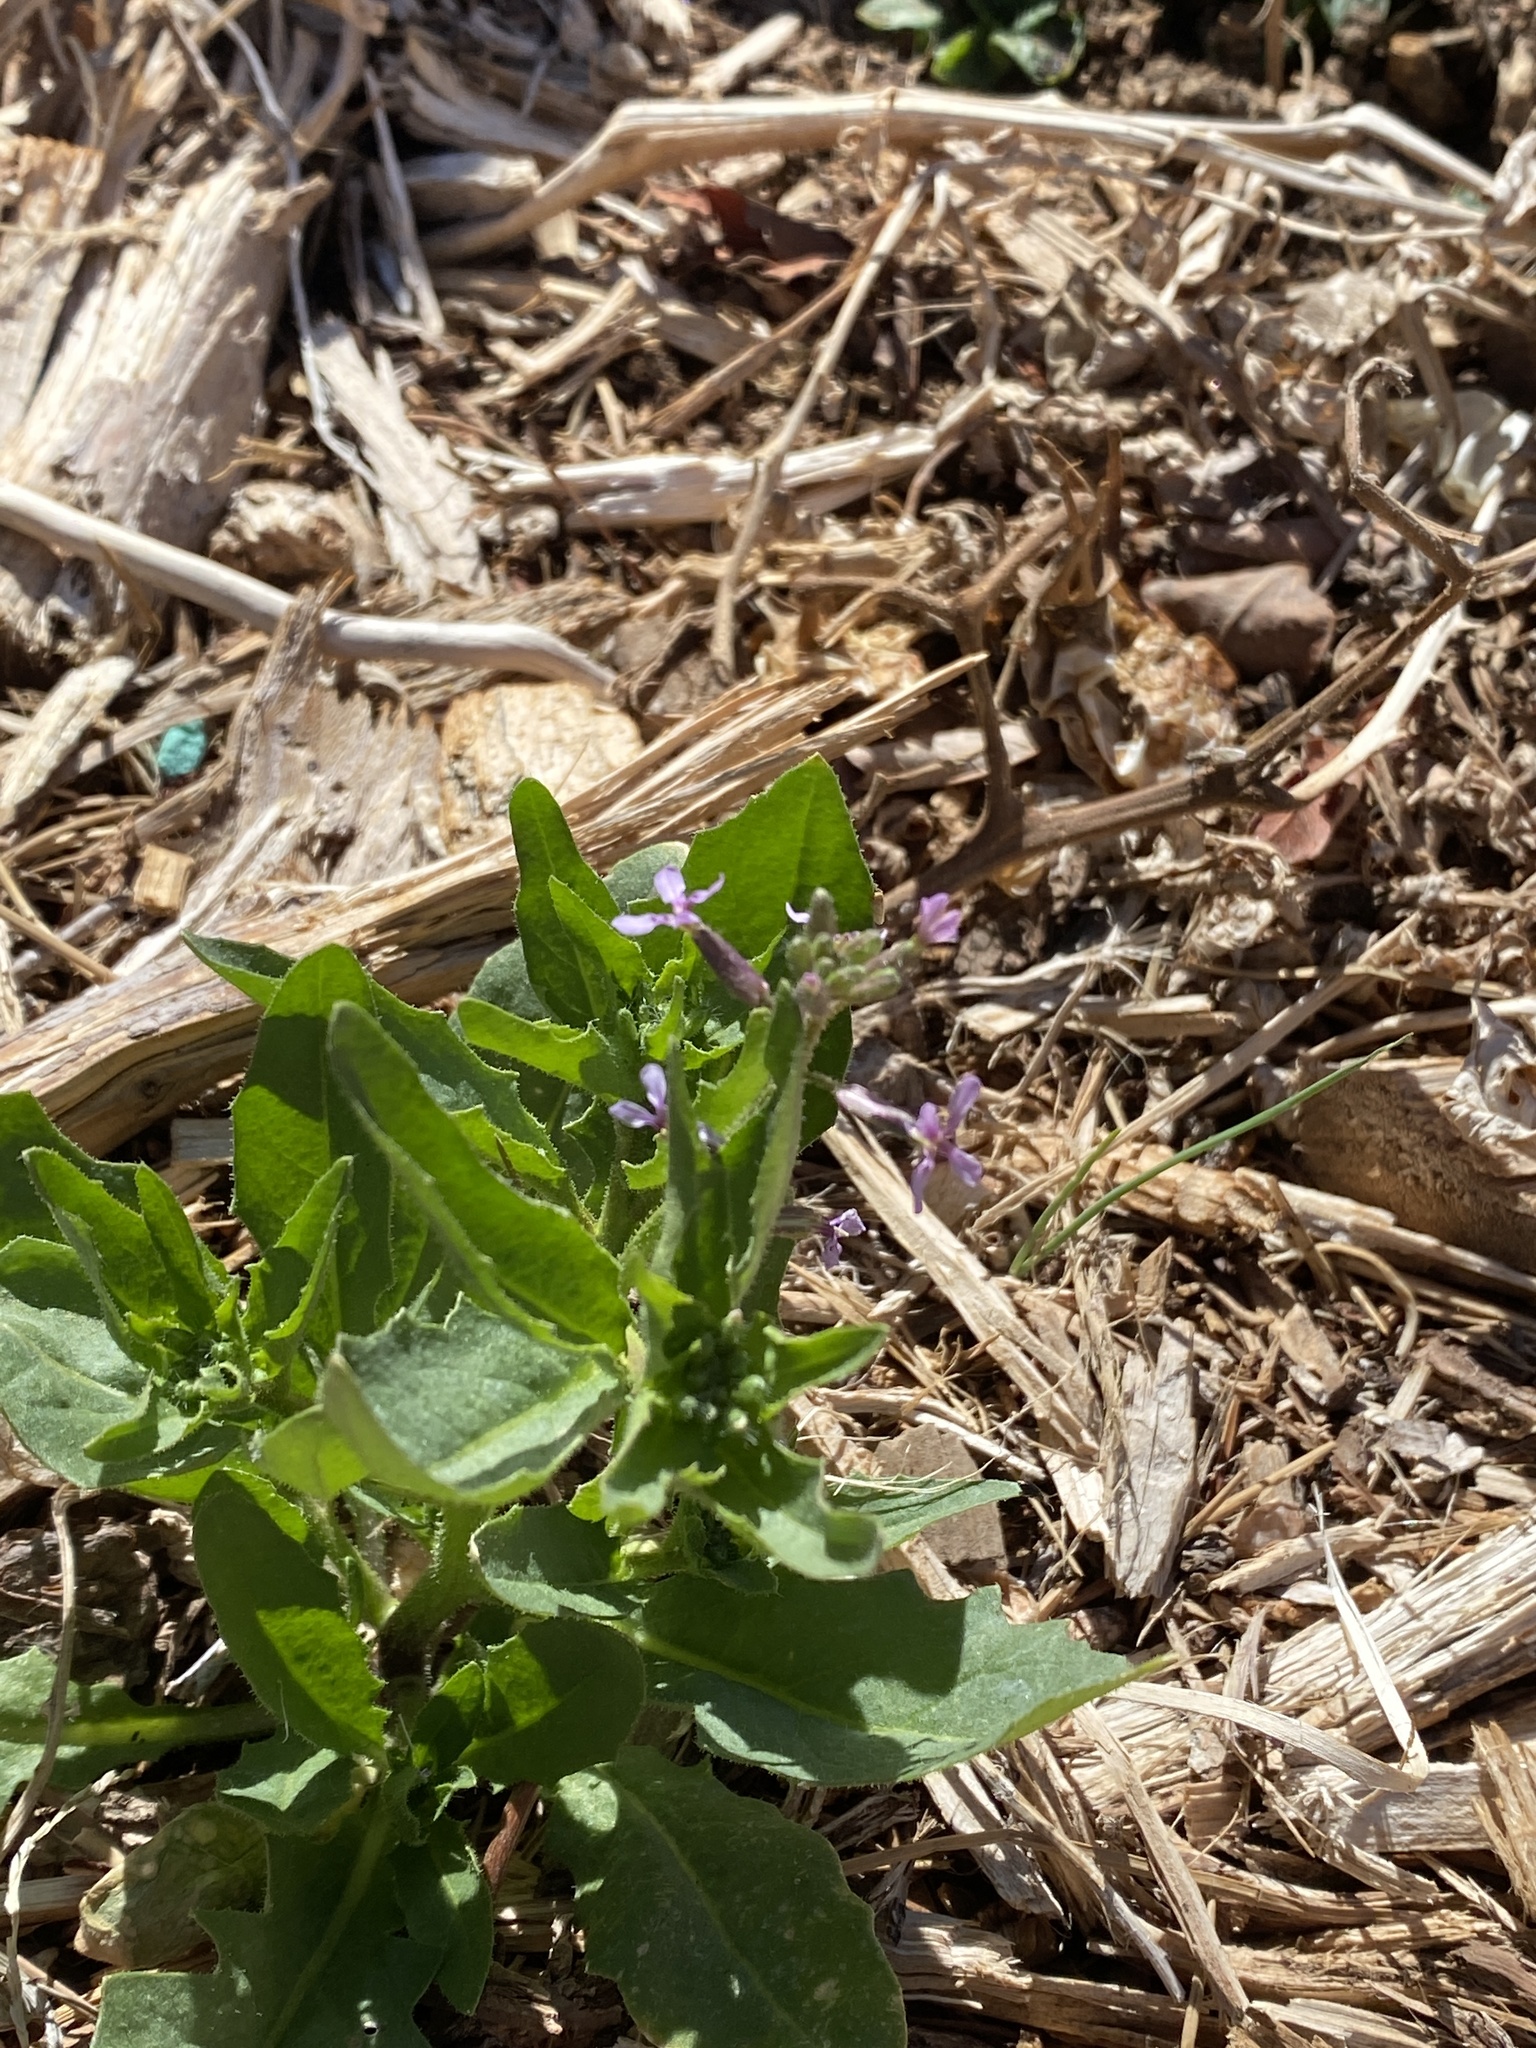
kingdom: Plantae
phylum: Tracheophyta
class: Magnoliopsida
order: Brassicales
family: Brassicaceae
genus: Chorispora
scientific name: Chorispora tenella
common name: Crossflower
